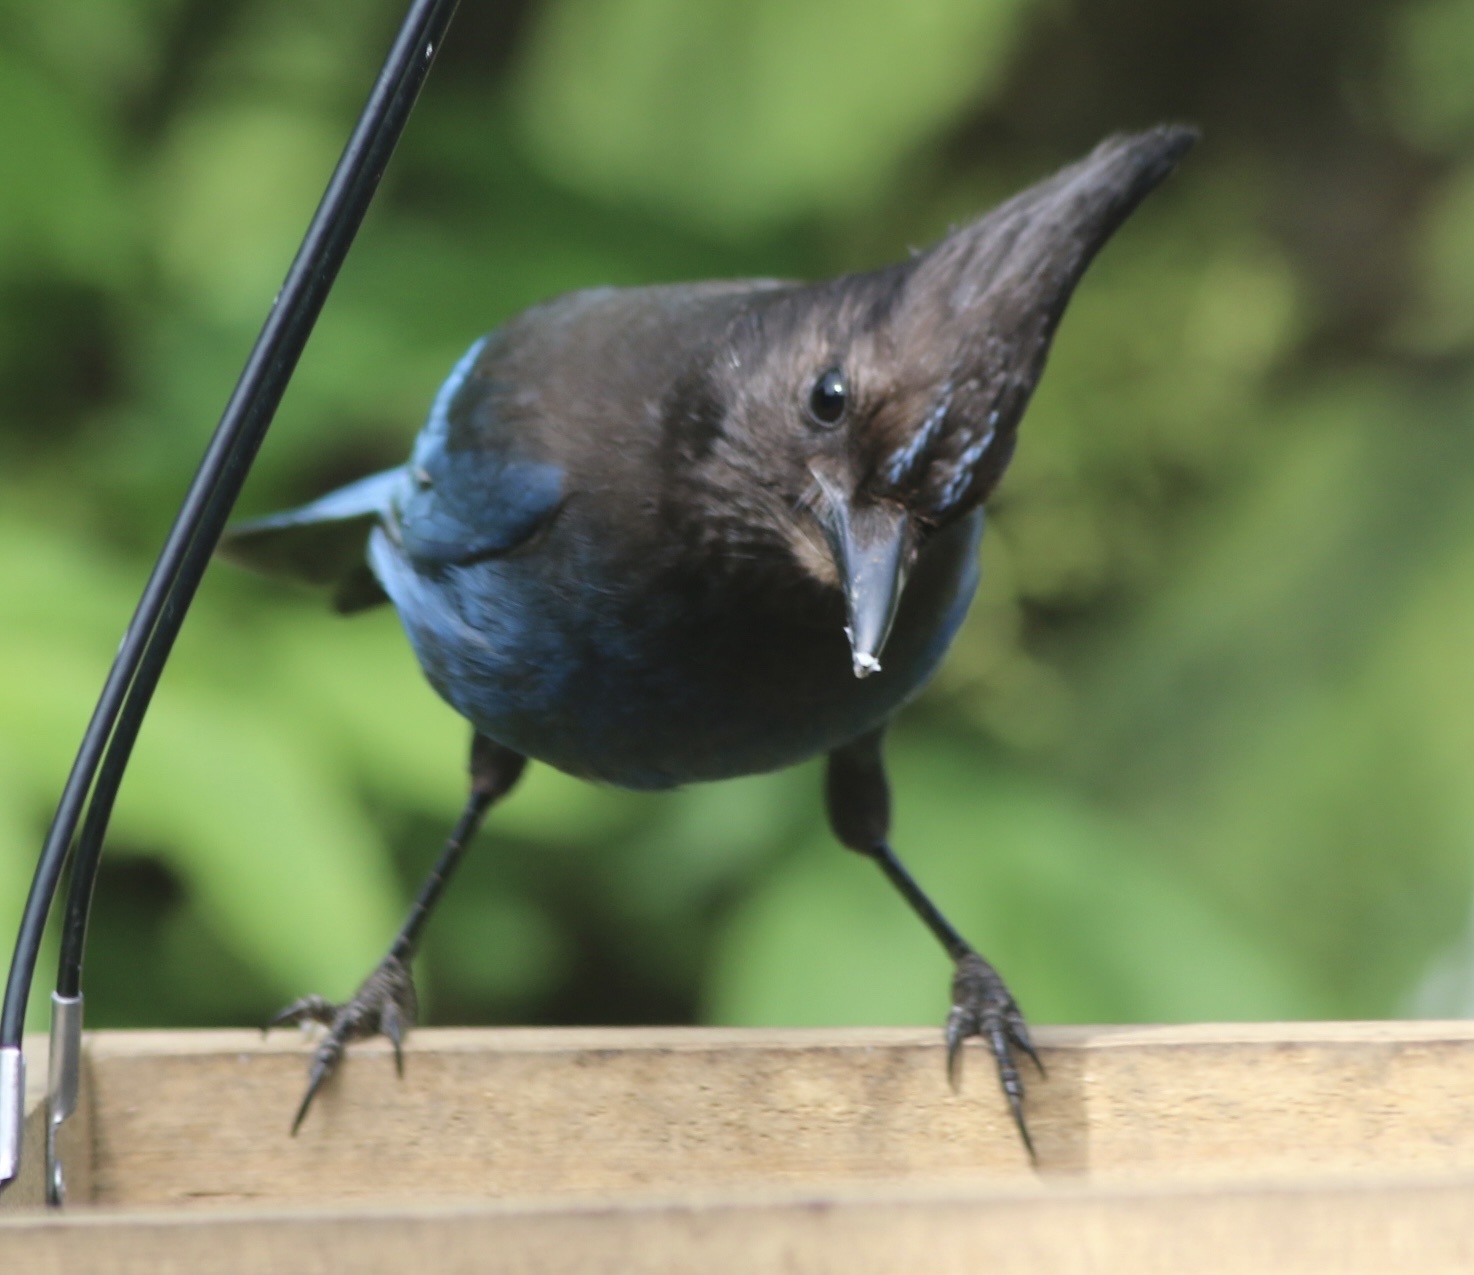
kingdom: Animalia
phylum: Chordata
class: Aves
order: Passeriformes
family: Corvidae
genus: Cyanocitta
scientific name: Cyanocitta stelleri
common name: Steller's jay
